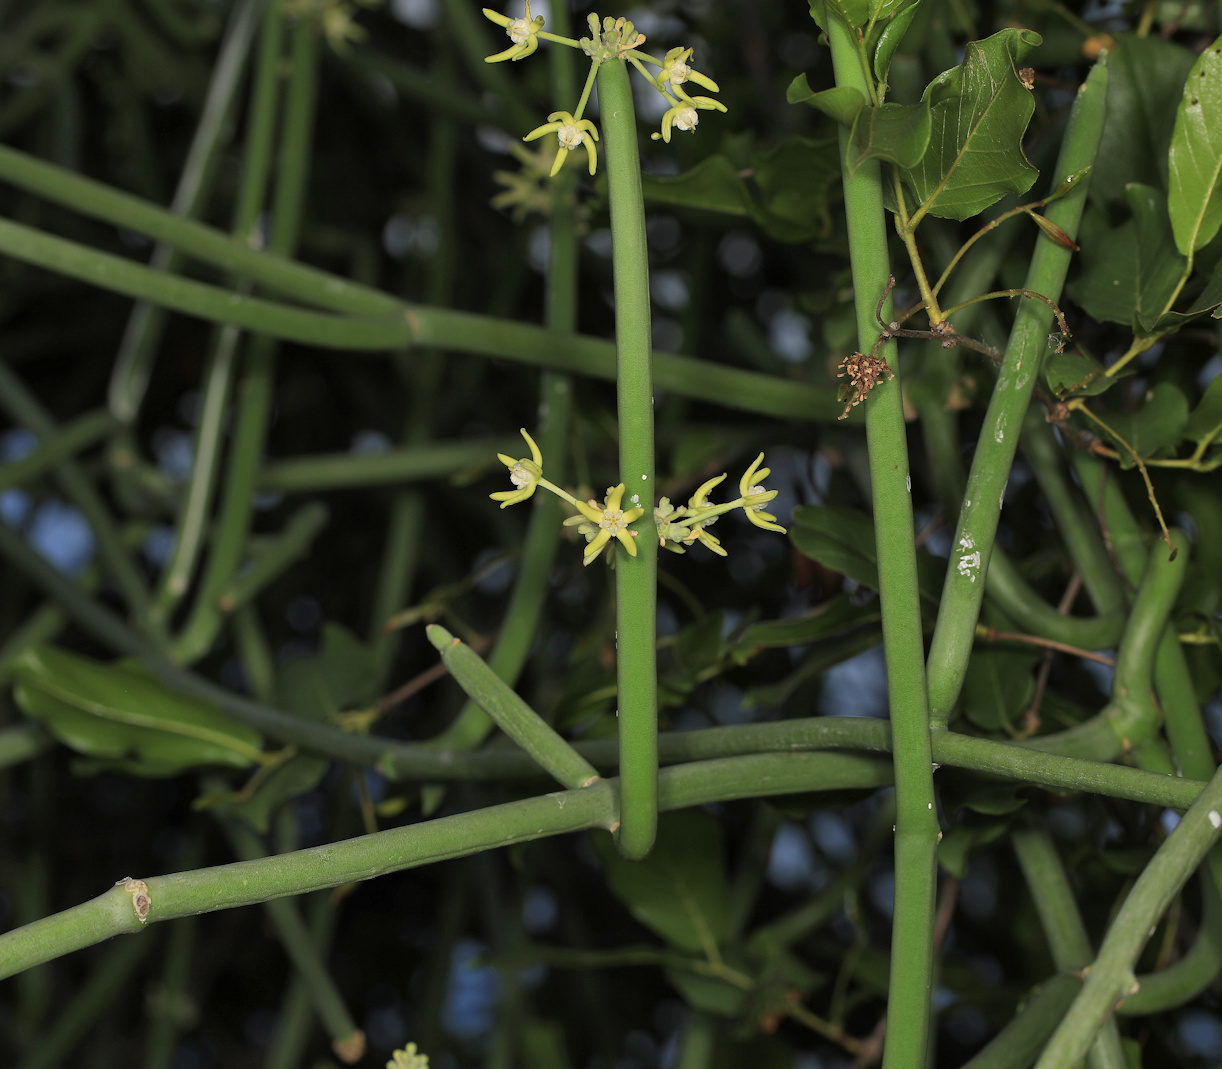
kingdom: Plantae
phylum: Tracheophyta
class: Magnoliopsida
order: Gentianales
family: Apocynaceae
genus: Cynanchum
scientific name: Cynanchum viminale
